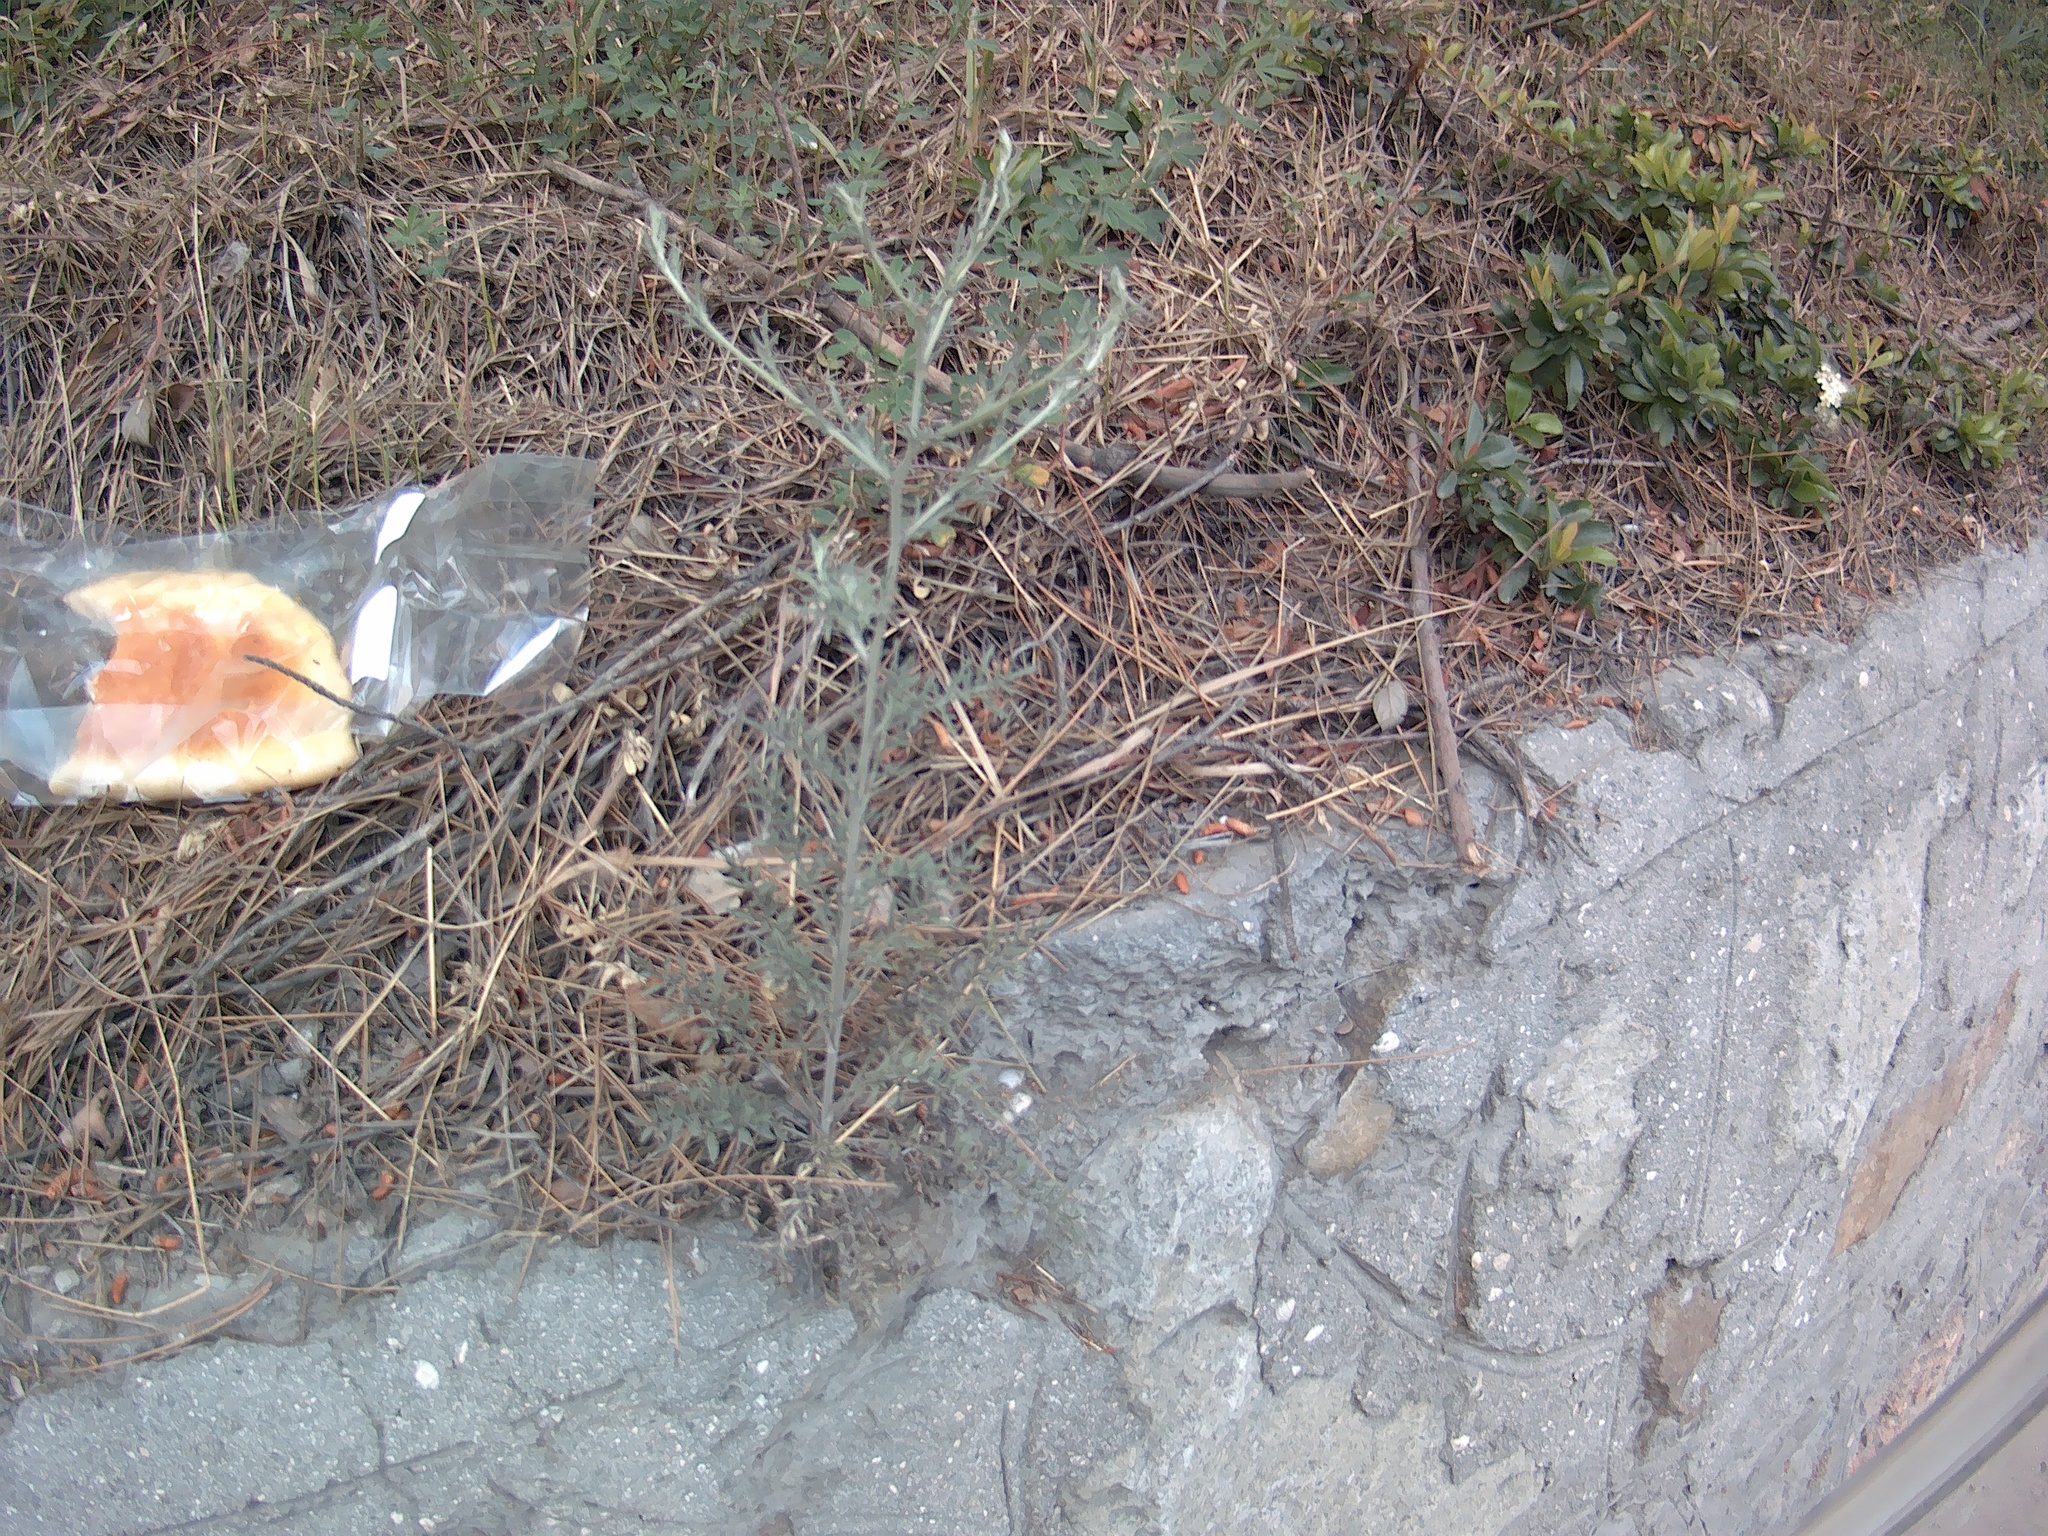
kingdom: Plantae
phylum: Tracheophyta
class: Magnoliopsida
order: Asterales
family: Asteraceae
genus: Centaurea
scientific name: Centaurea diffusa
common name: Diffuse knapweed
